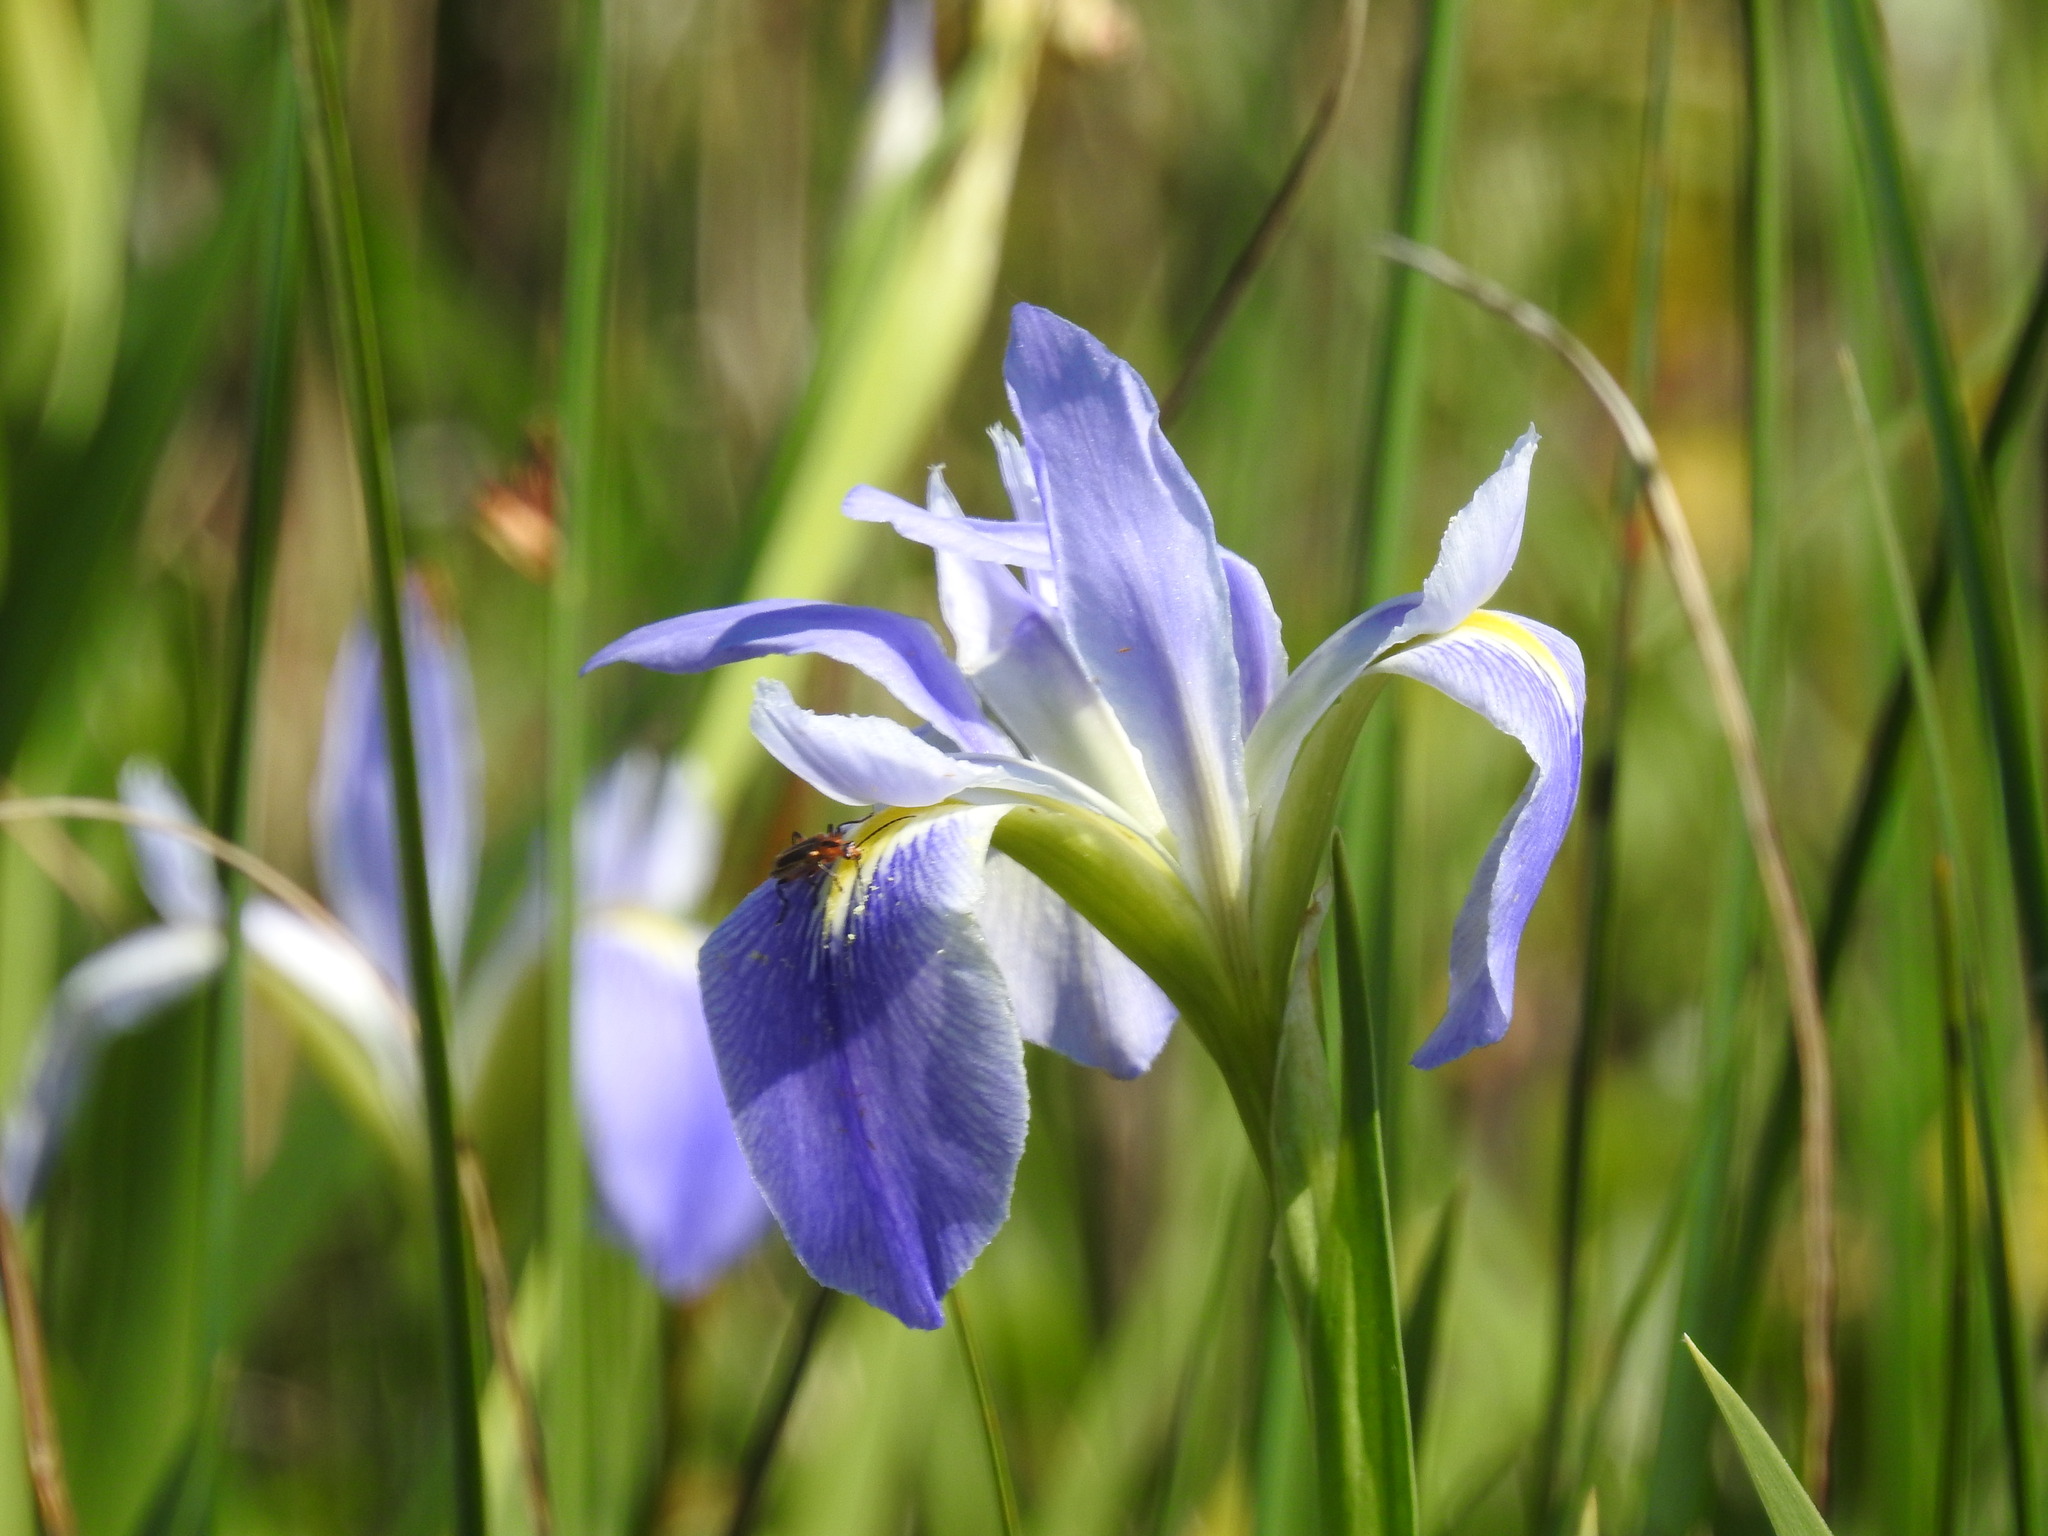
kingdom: Plantae
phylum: Tracheophyta
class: Liliopsida
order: Asparagales
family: Iridaceae
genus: Iris
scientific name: Iris savannarum
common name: Prairie iris
